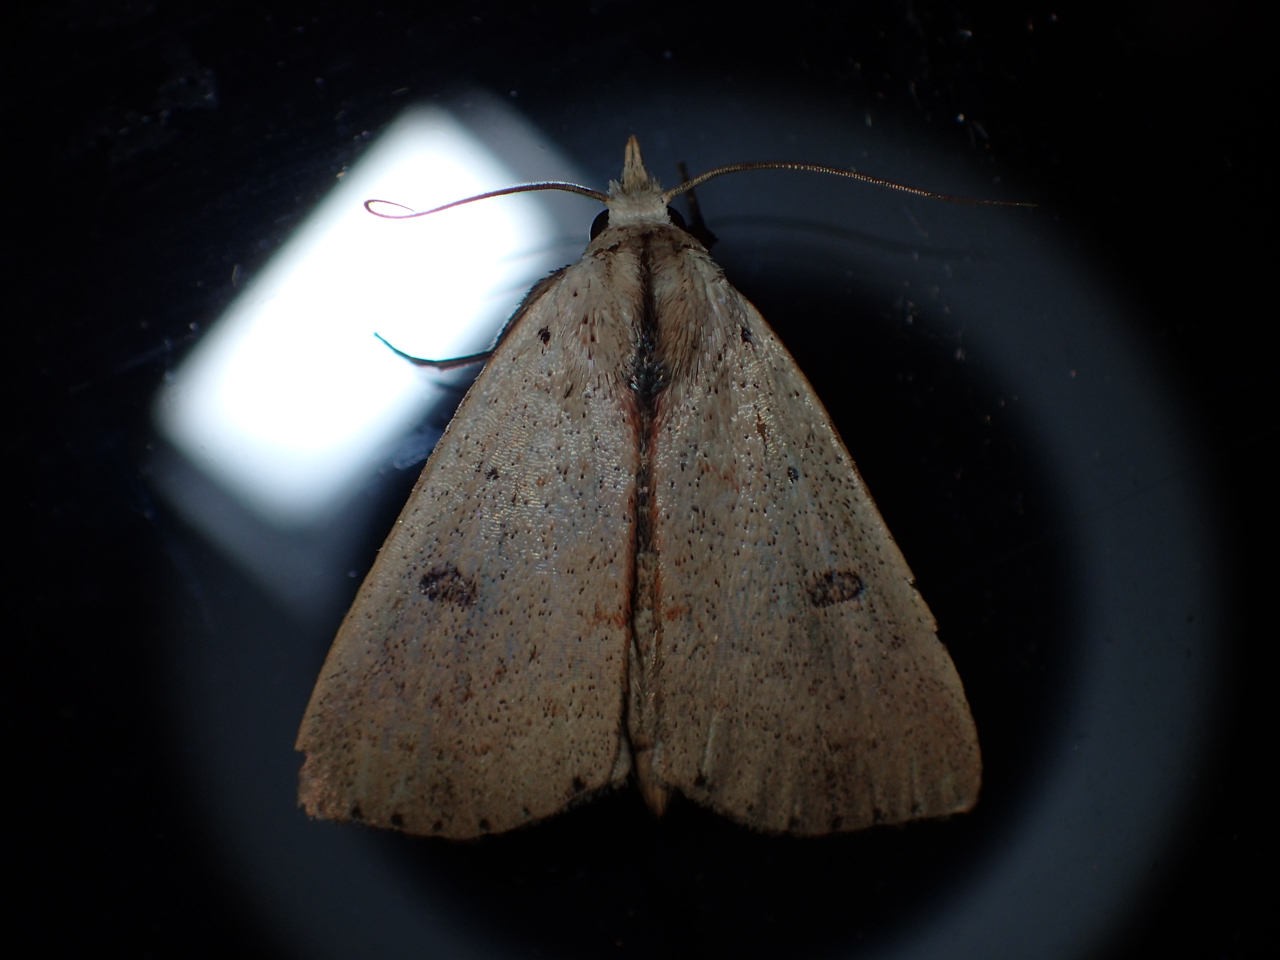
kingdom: Animalia
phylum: Arthropoda
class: Insecta
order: Lepidoptera
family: Erebidae
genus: Scolecocampa
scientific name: Scolecocampa liburna
